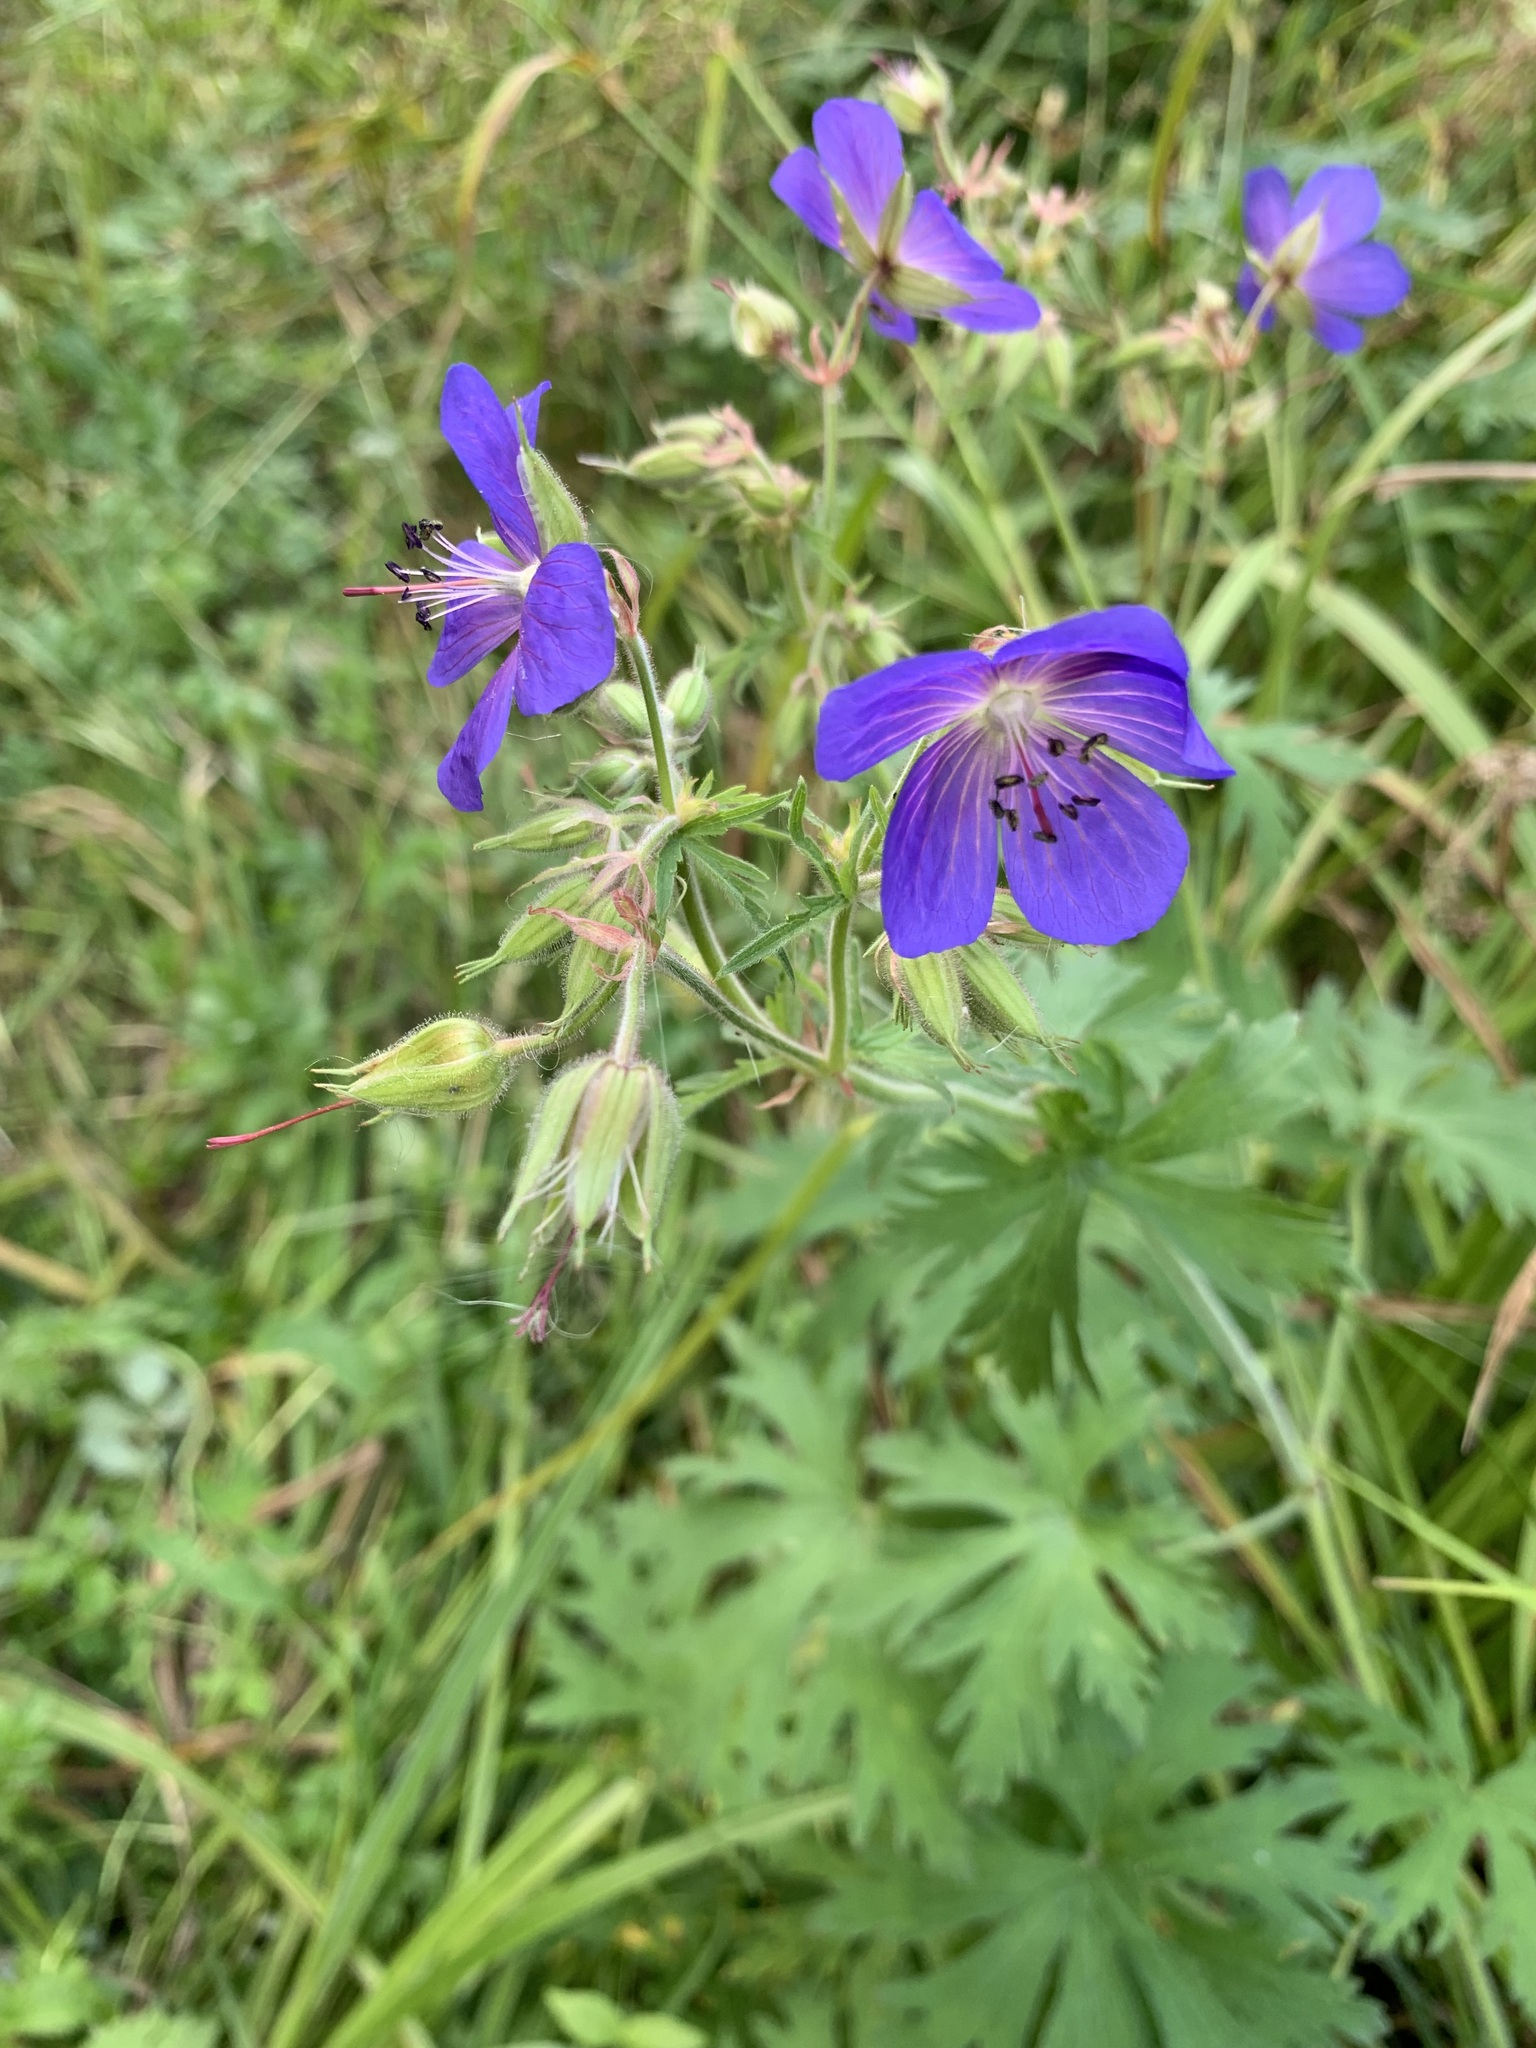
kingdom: Plantae
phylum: Tracheophyta
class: Magnoliopsida
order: Geraniales
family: Geraniaceae
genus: Geranium
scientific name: Geranium pratense
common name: Meadow crane's-bill
